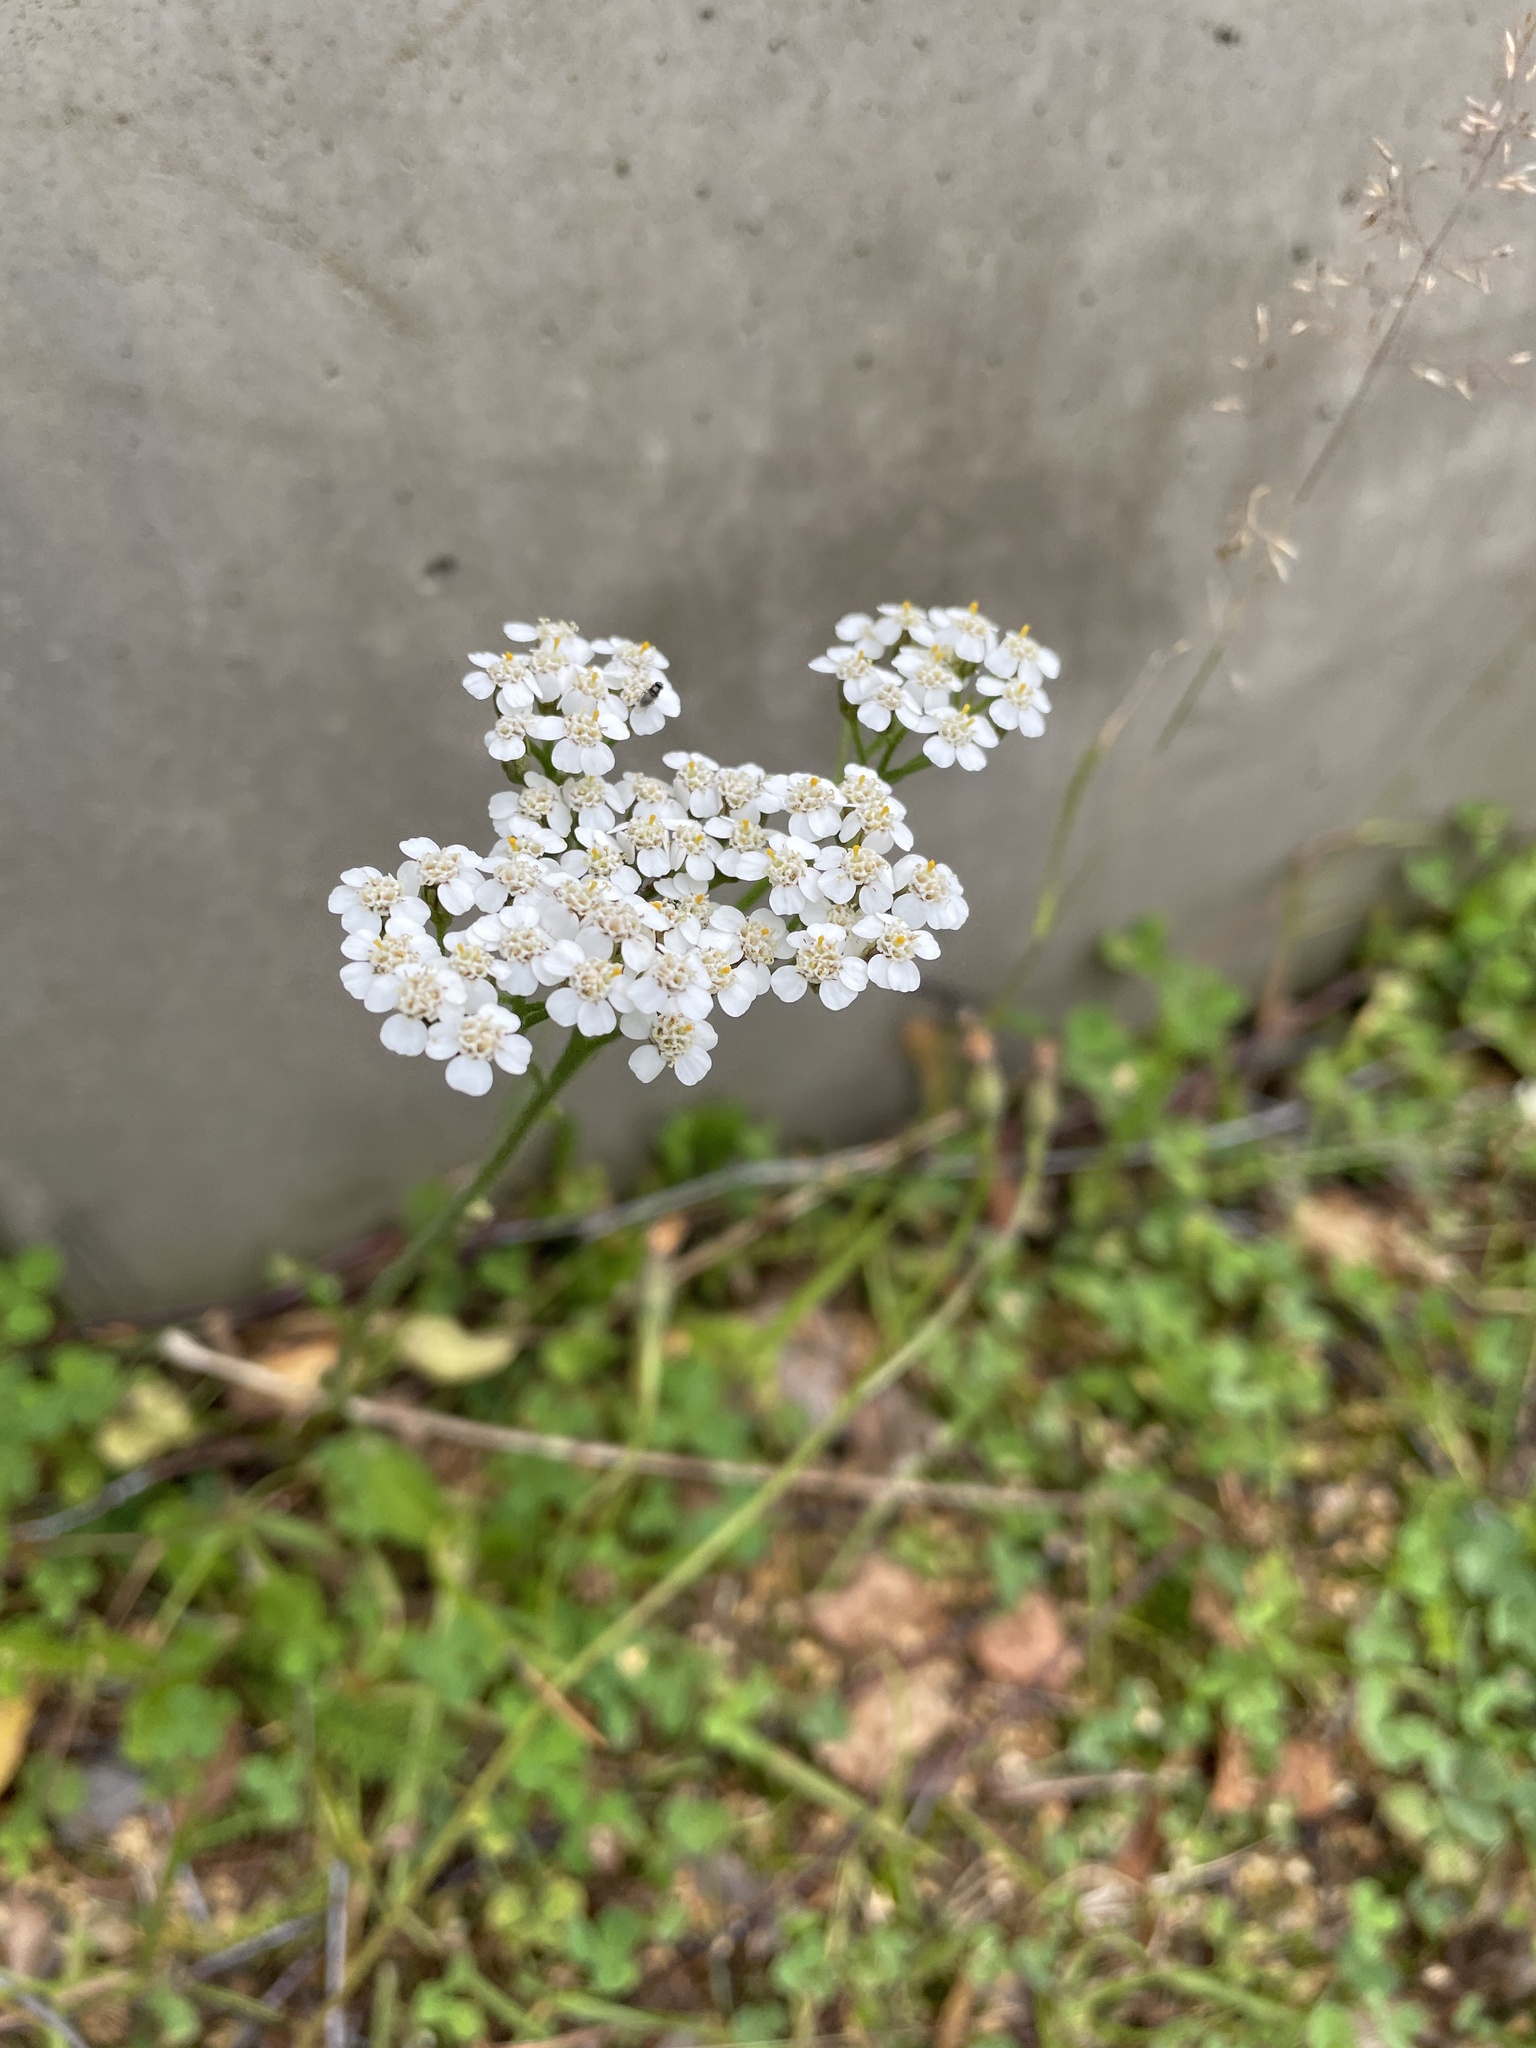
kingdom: Plantae
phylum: Tracheophyta
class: Magnoliopsida
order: Asterales
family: Asteraceae
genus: Achillea
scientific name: Achillea millefolium
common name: Yarrow
